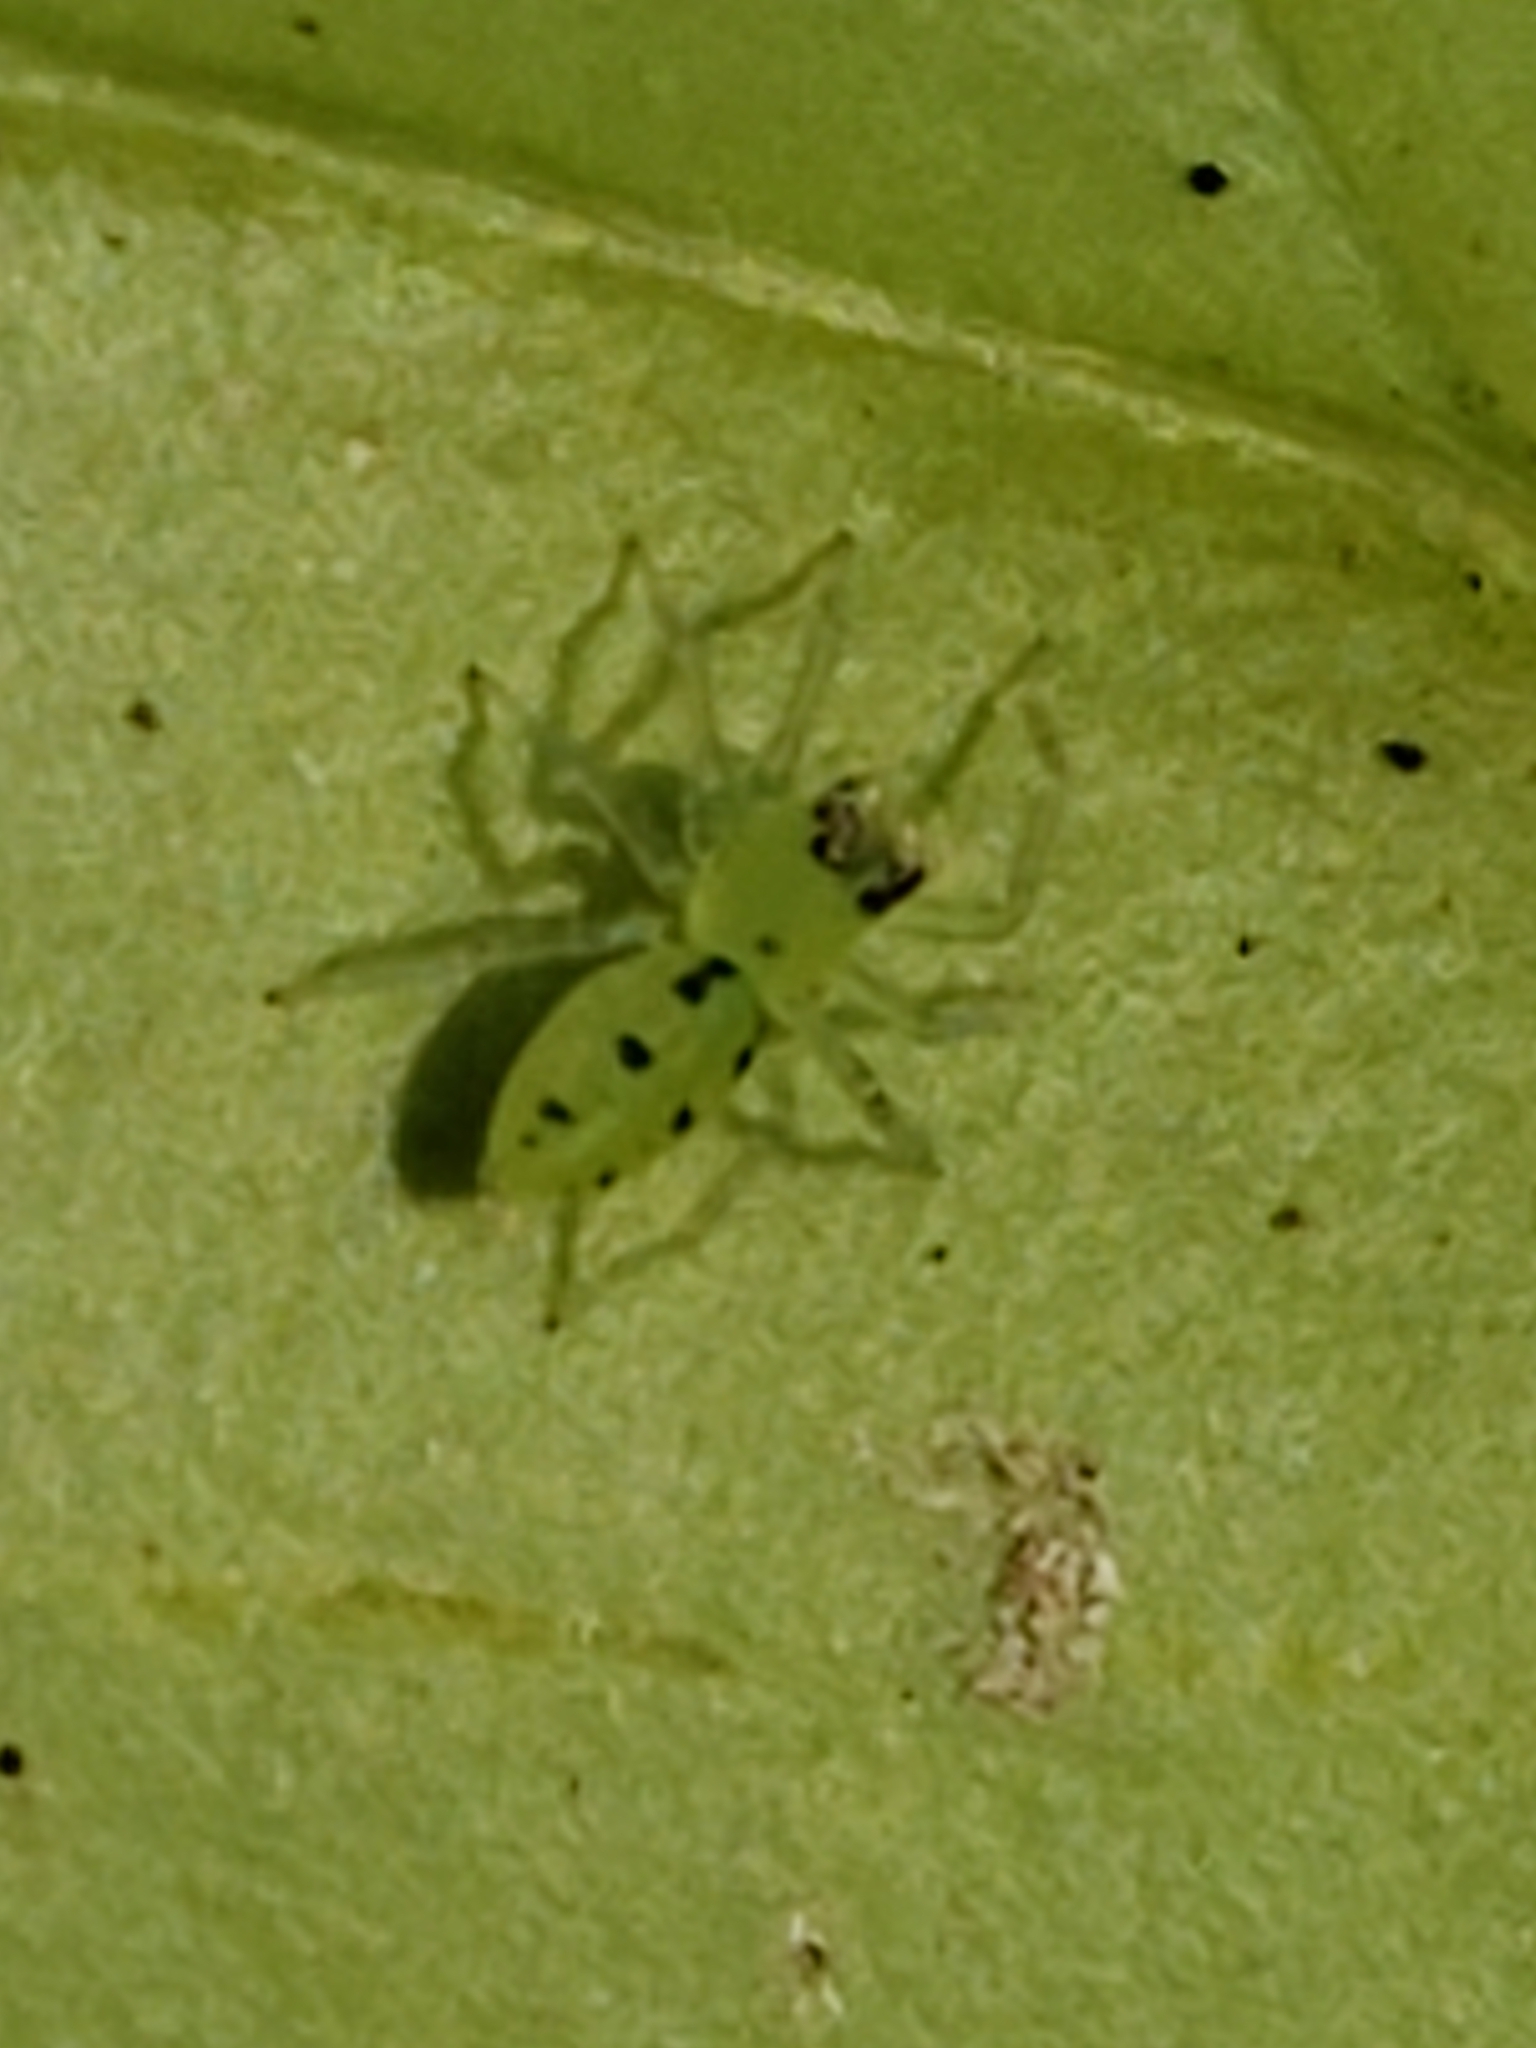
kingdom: Animalia
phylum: Arthropoda
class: Arachnida
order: Araneae
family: Salticidae
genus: Lyssomanes
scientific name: Lyssomanes viridis
